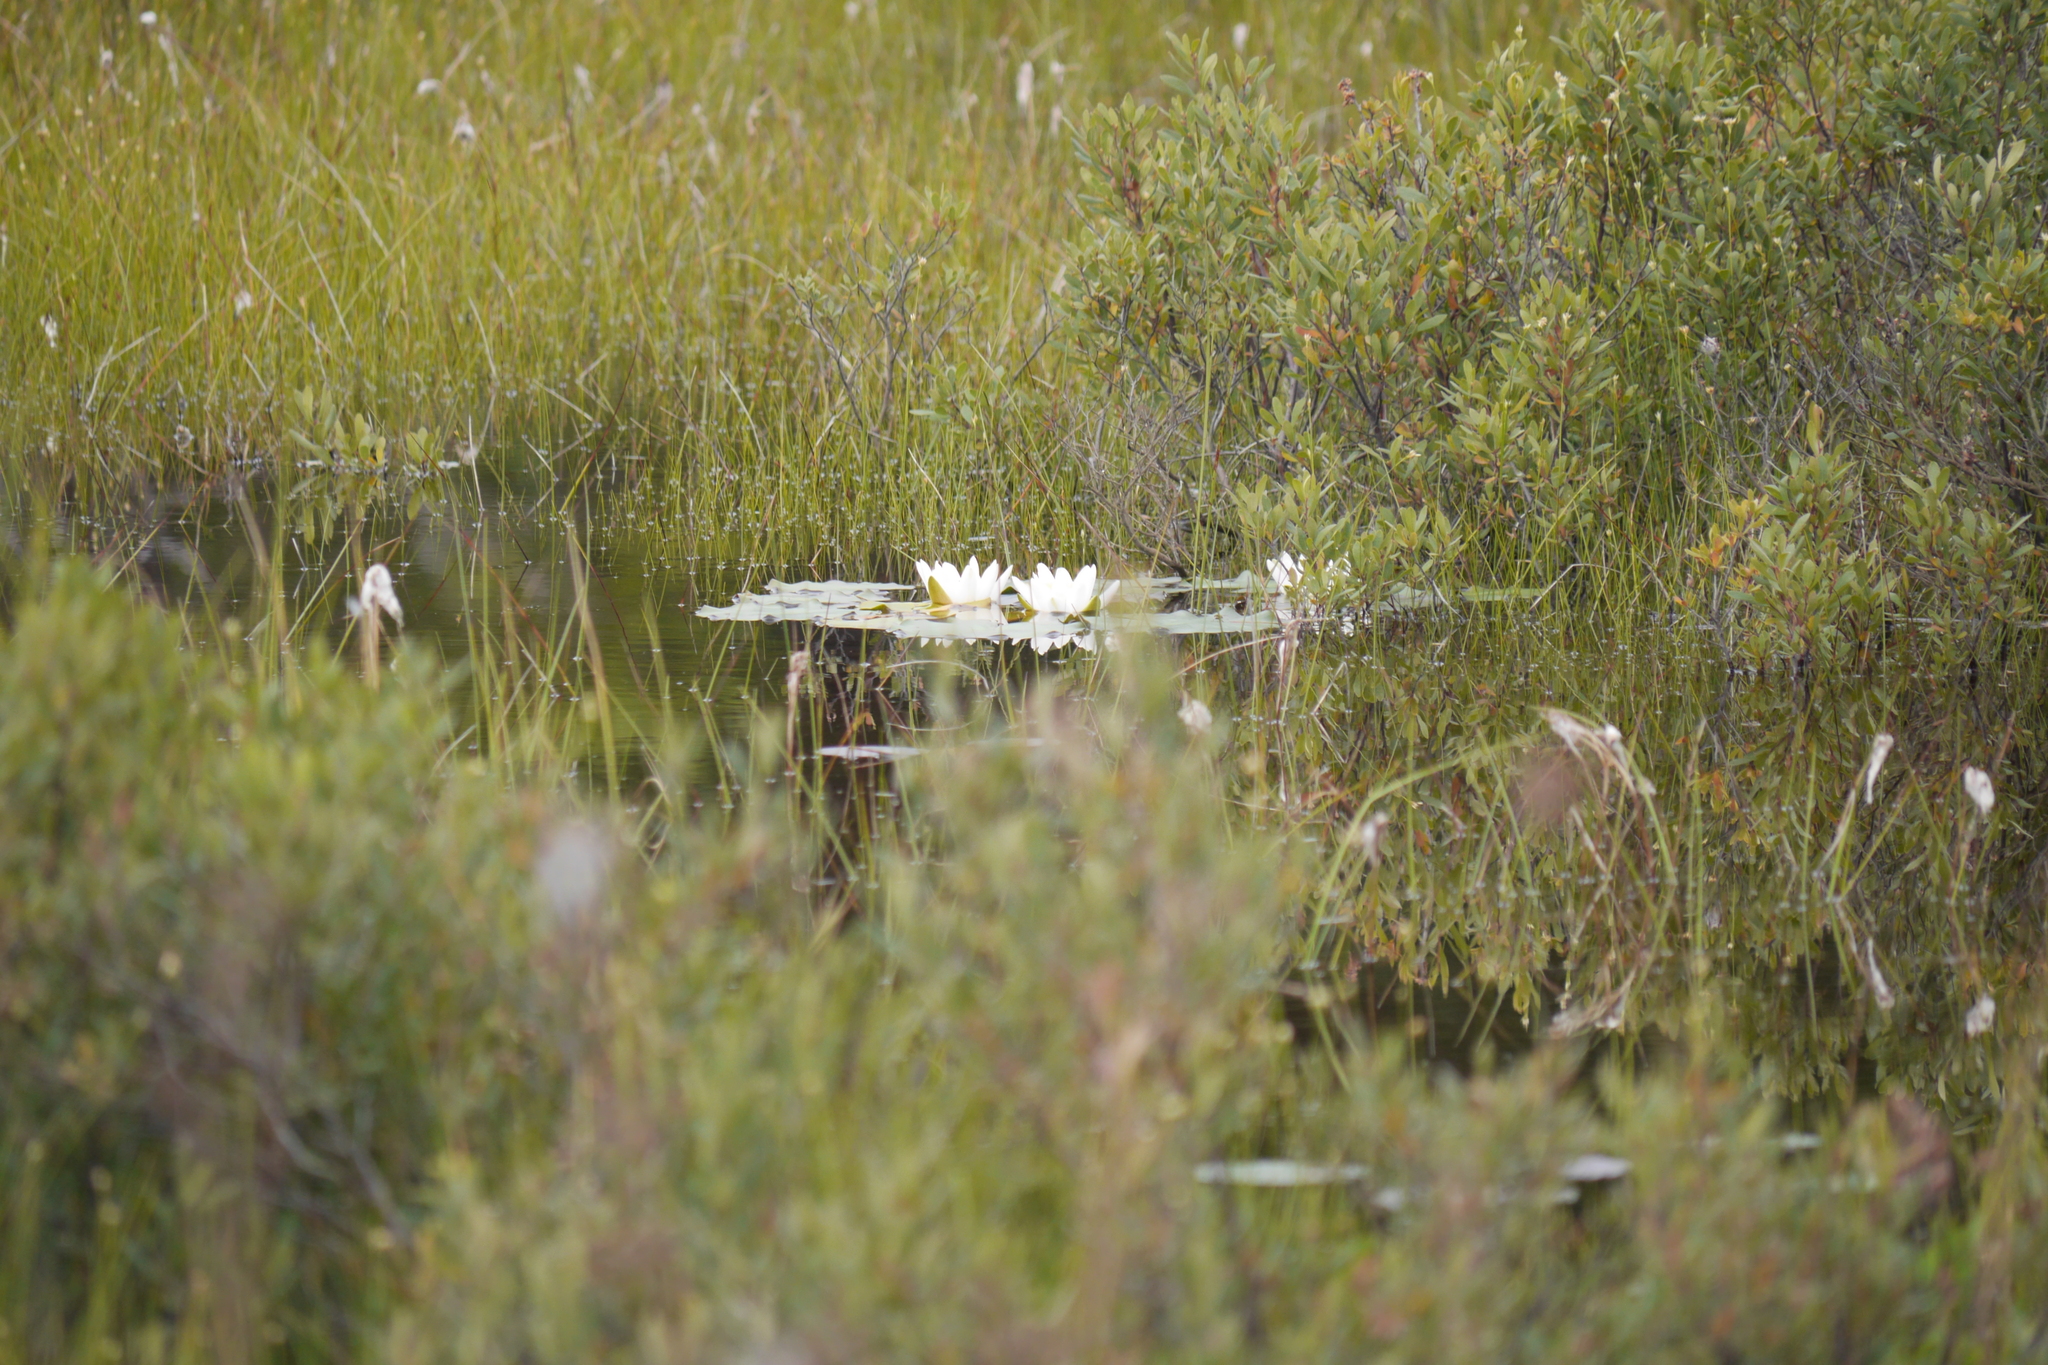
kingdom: Plantae
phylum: Tracheophyta
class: Magnoliopsida
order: Nymphaeales
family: Nymphaeaceae
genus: Nymphaea
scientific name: Nymphaea alba
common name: White water-lily
